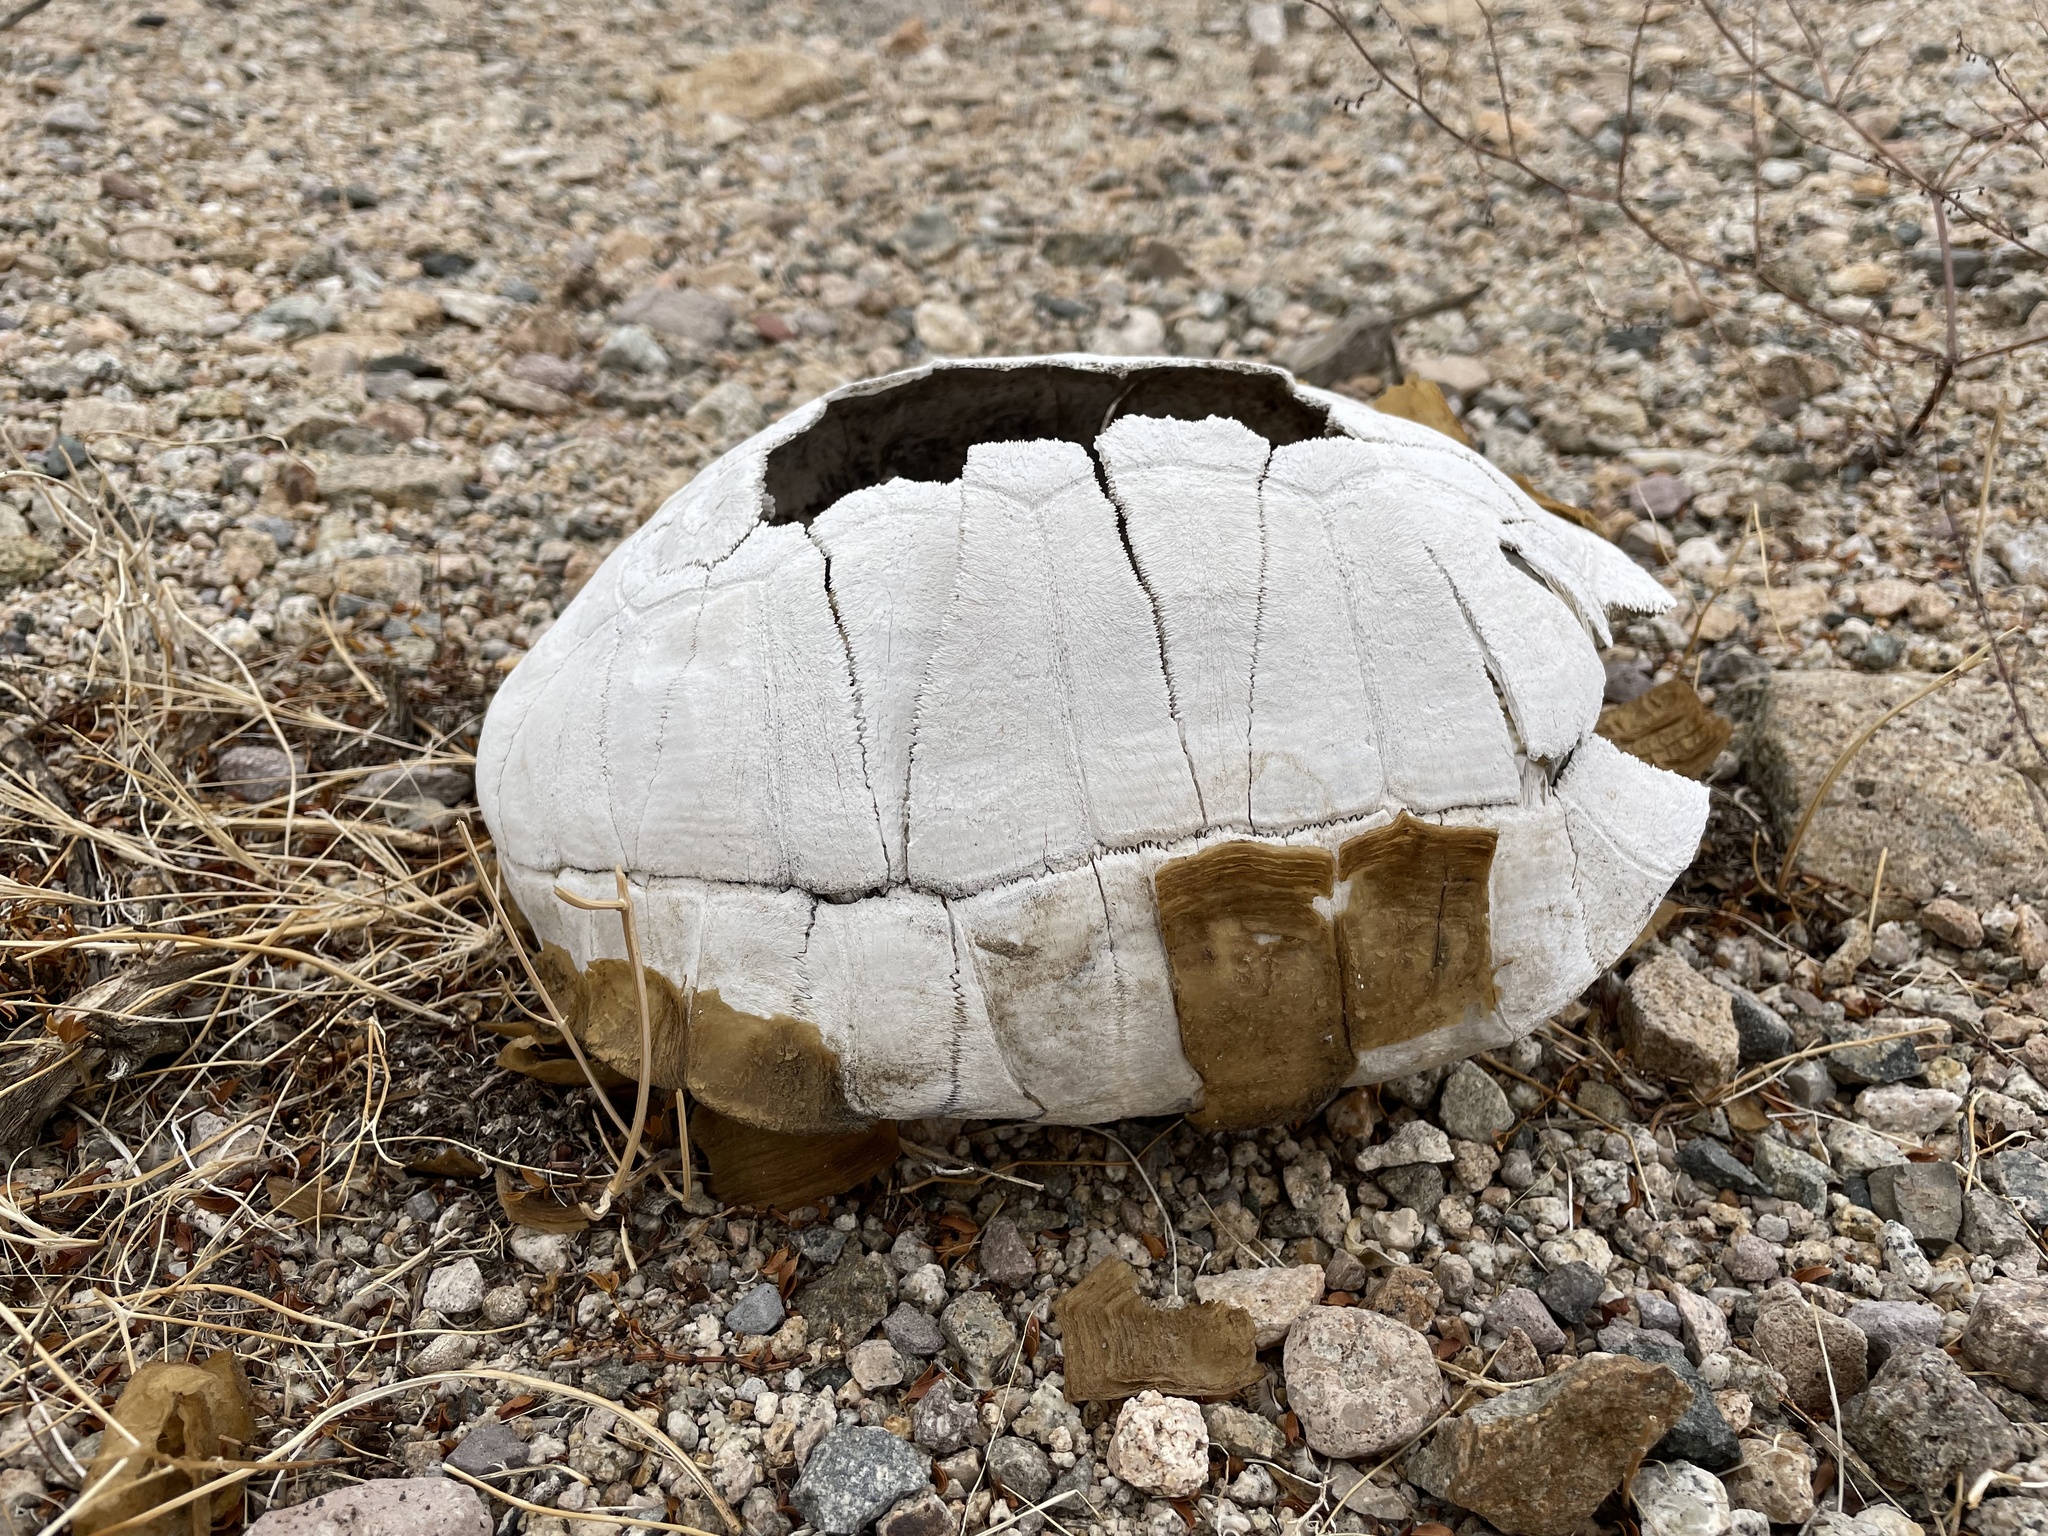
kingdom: Animalia
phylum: Chordata
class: Testudines
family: Testudinidae
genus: Gopherus
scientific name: Gopherus agassizii
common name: Mojave desert tortoise
